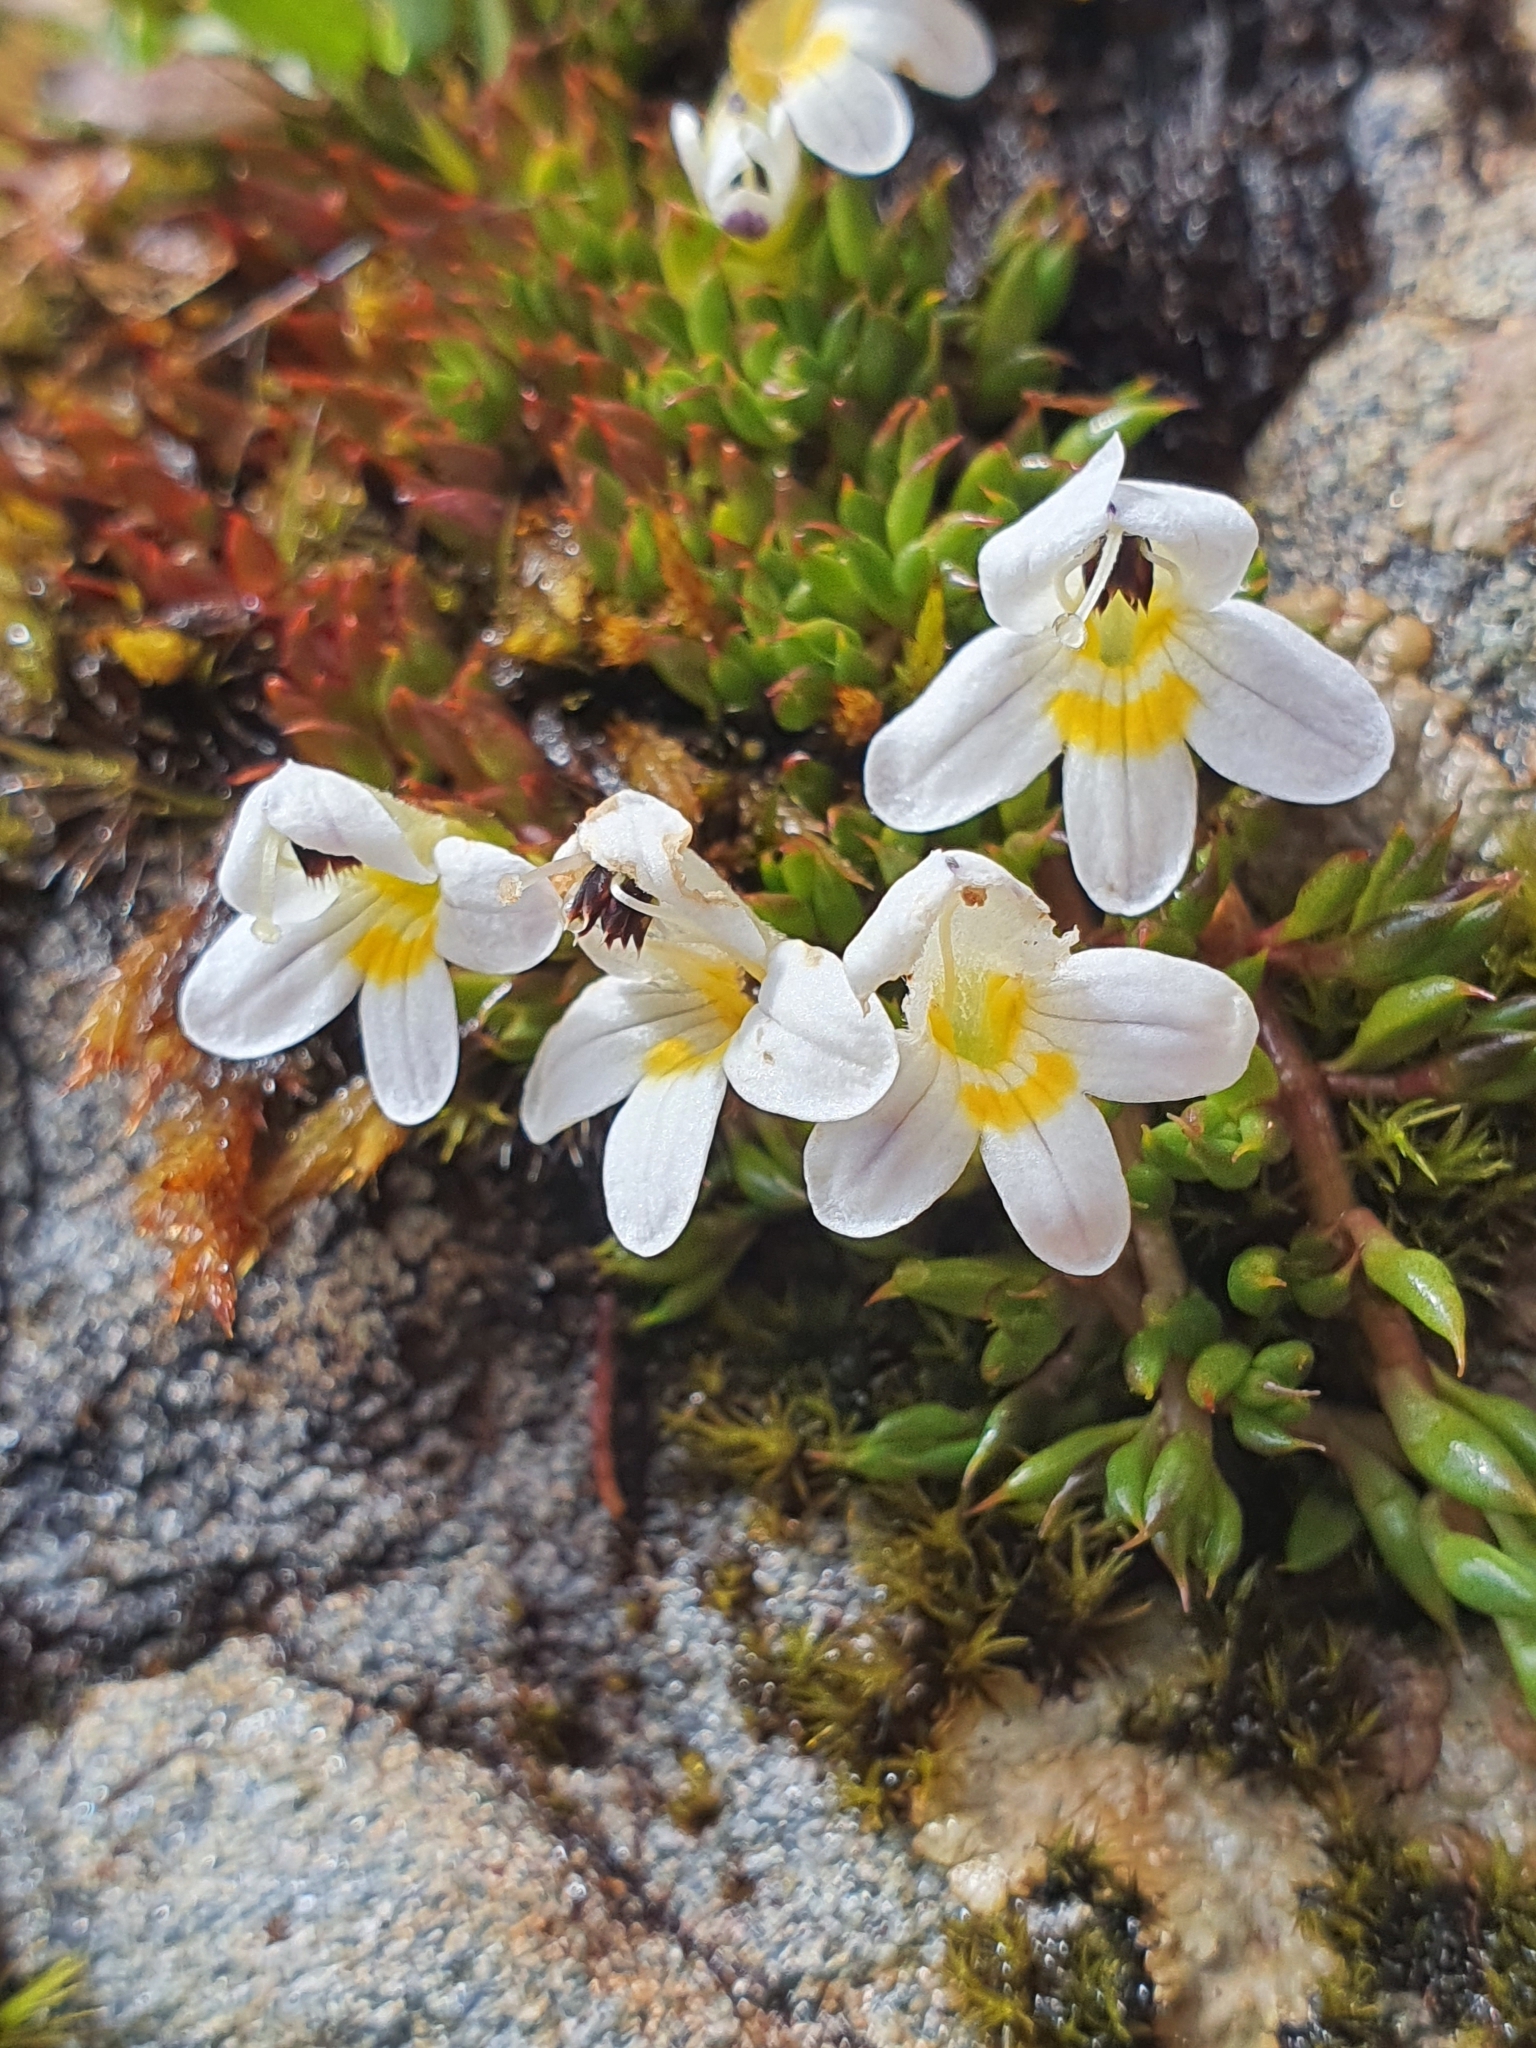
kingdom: Plantae
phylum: Tracheophyta
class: Magnoliopsida
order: Lamiales
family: Orobanchaceae
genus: Euphrasia
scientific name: Euphrasia integrifolia
